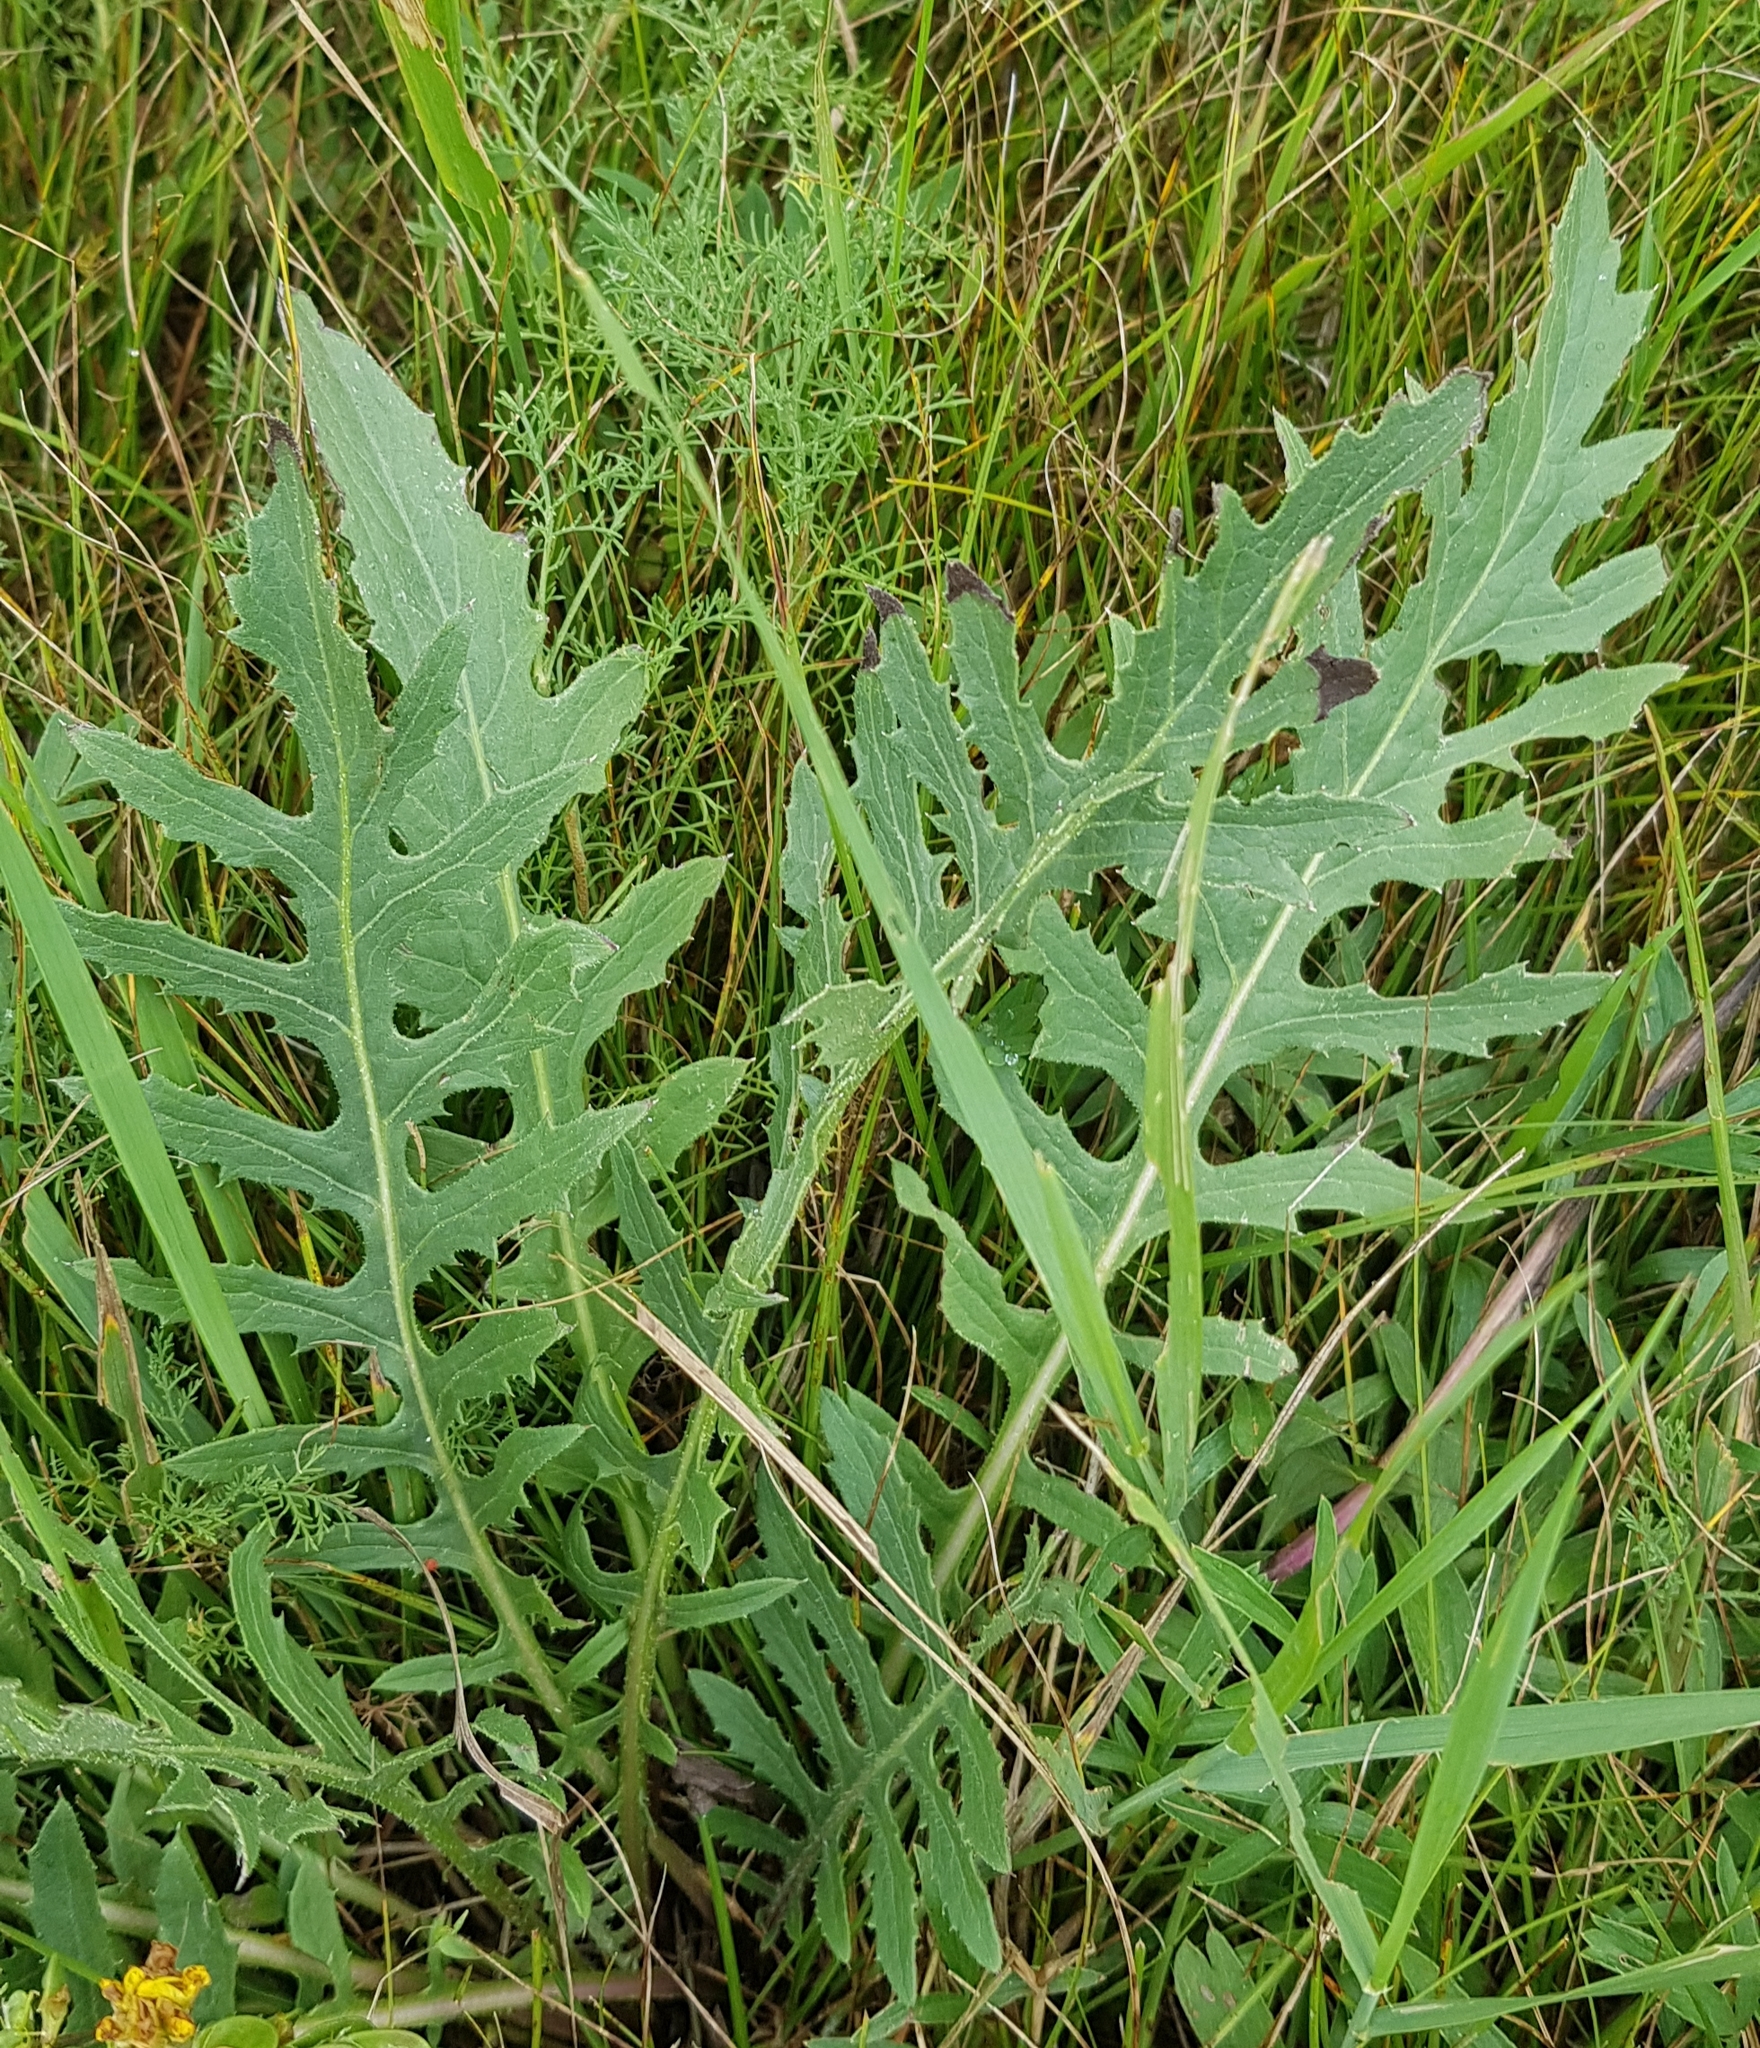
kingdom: Plantae
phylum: Tracheophyta
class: Magnoliopsida
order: Asterales
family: Asteraceae
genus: Klasea
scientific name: Klasea centauroides
